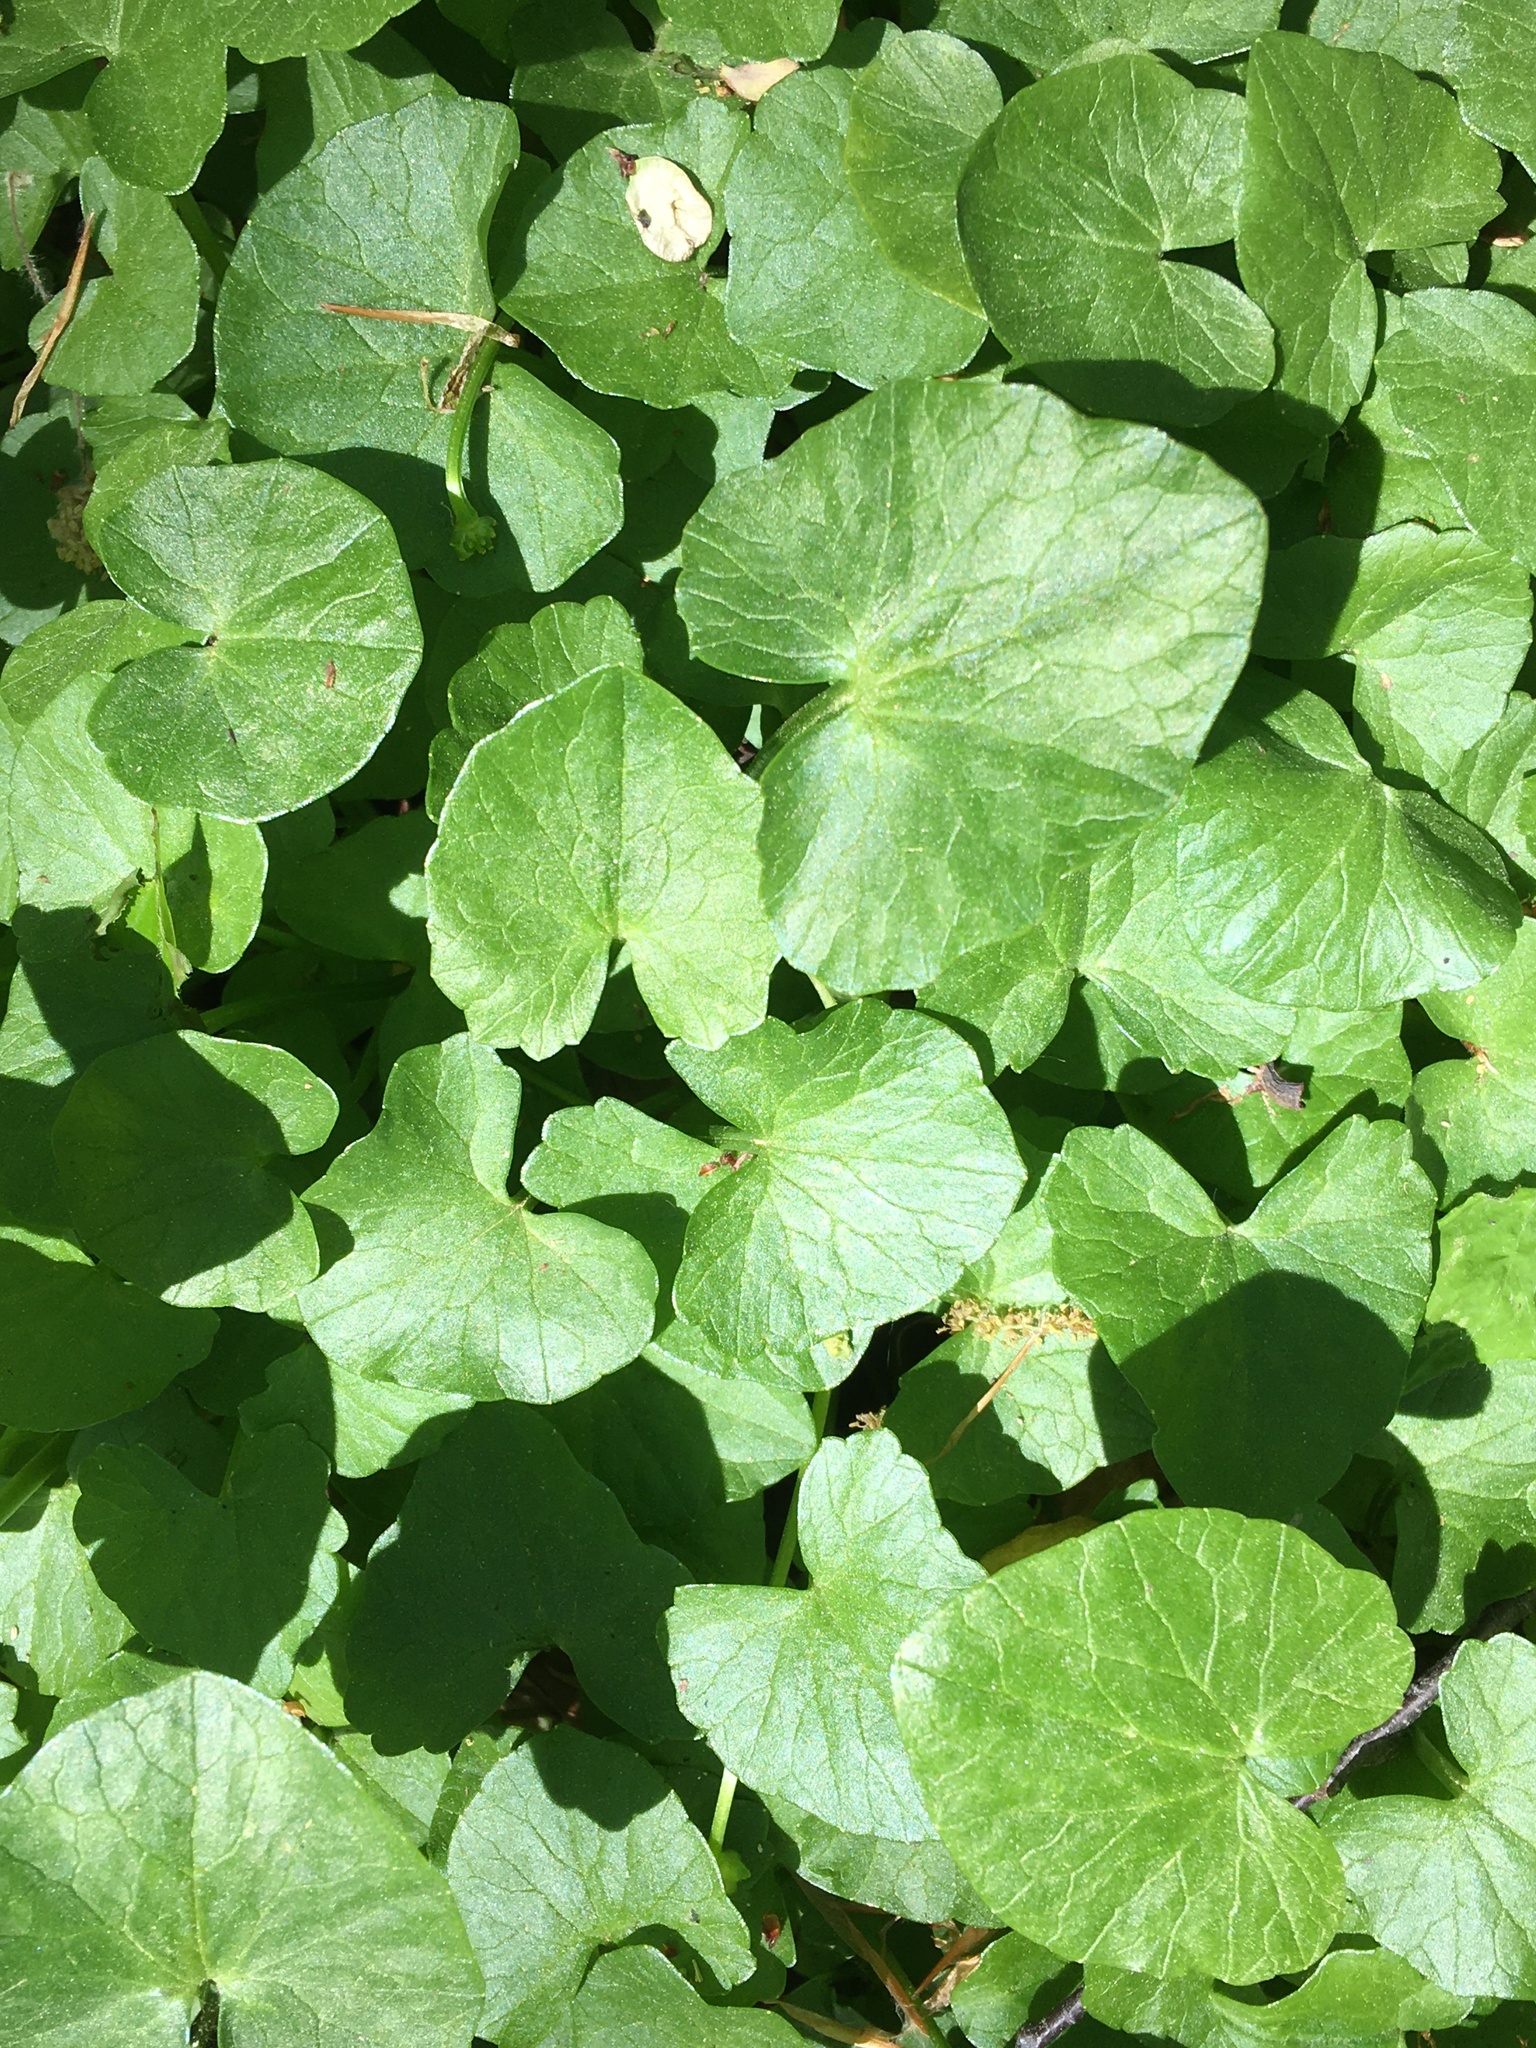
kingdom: Plantae
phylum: Tracheophyta
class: Magnoliopsida
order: Ranunculales
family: Ranunculaceae
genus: Ficaria
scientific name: Ficaria verna
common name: Lesser celandine
